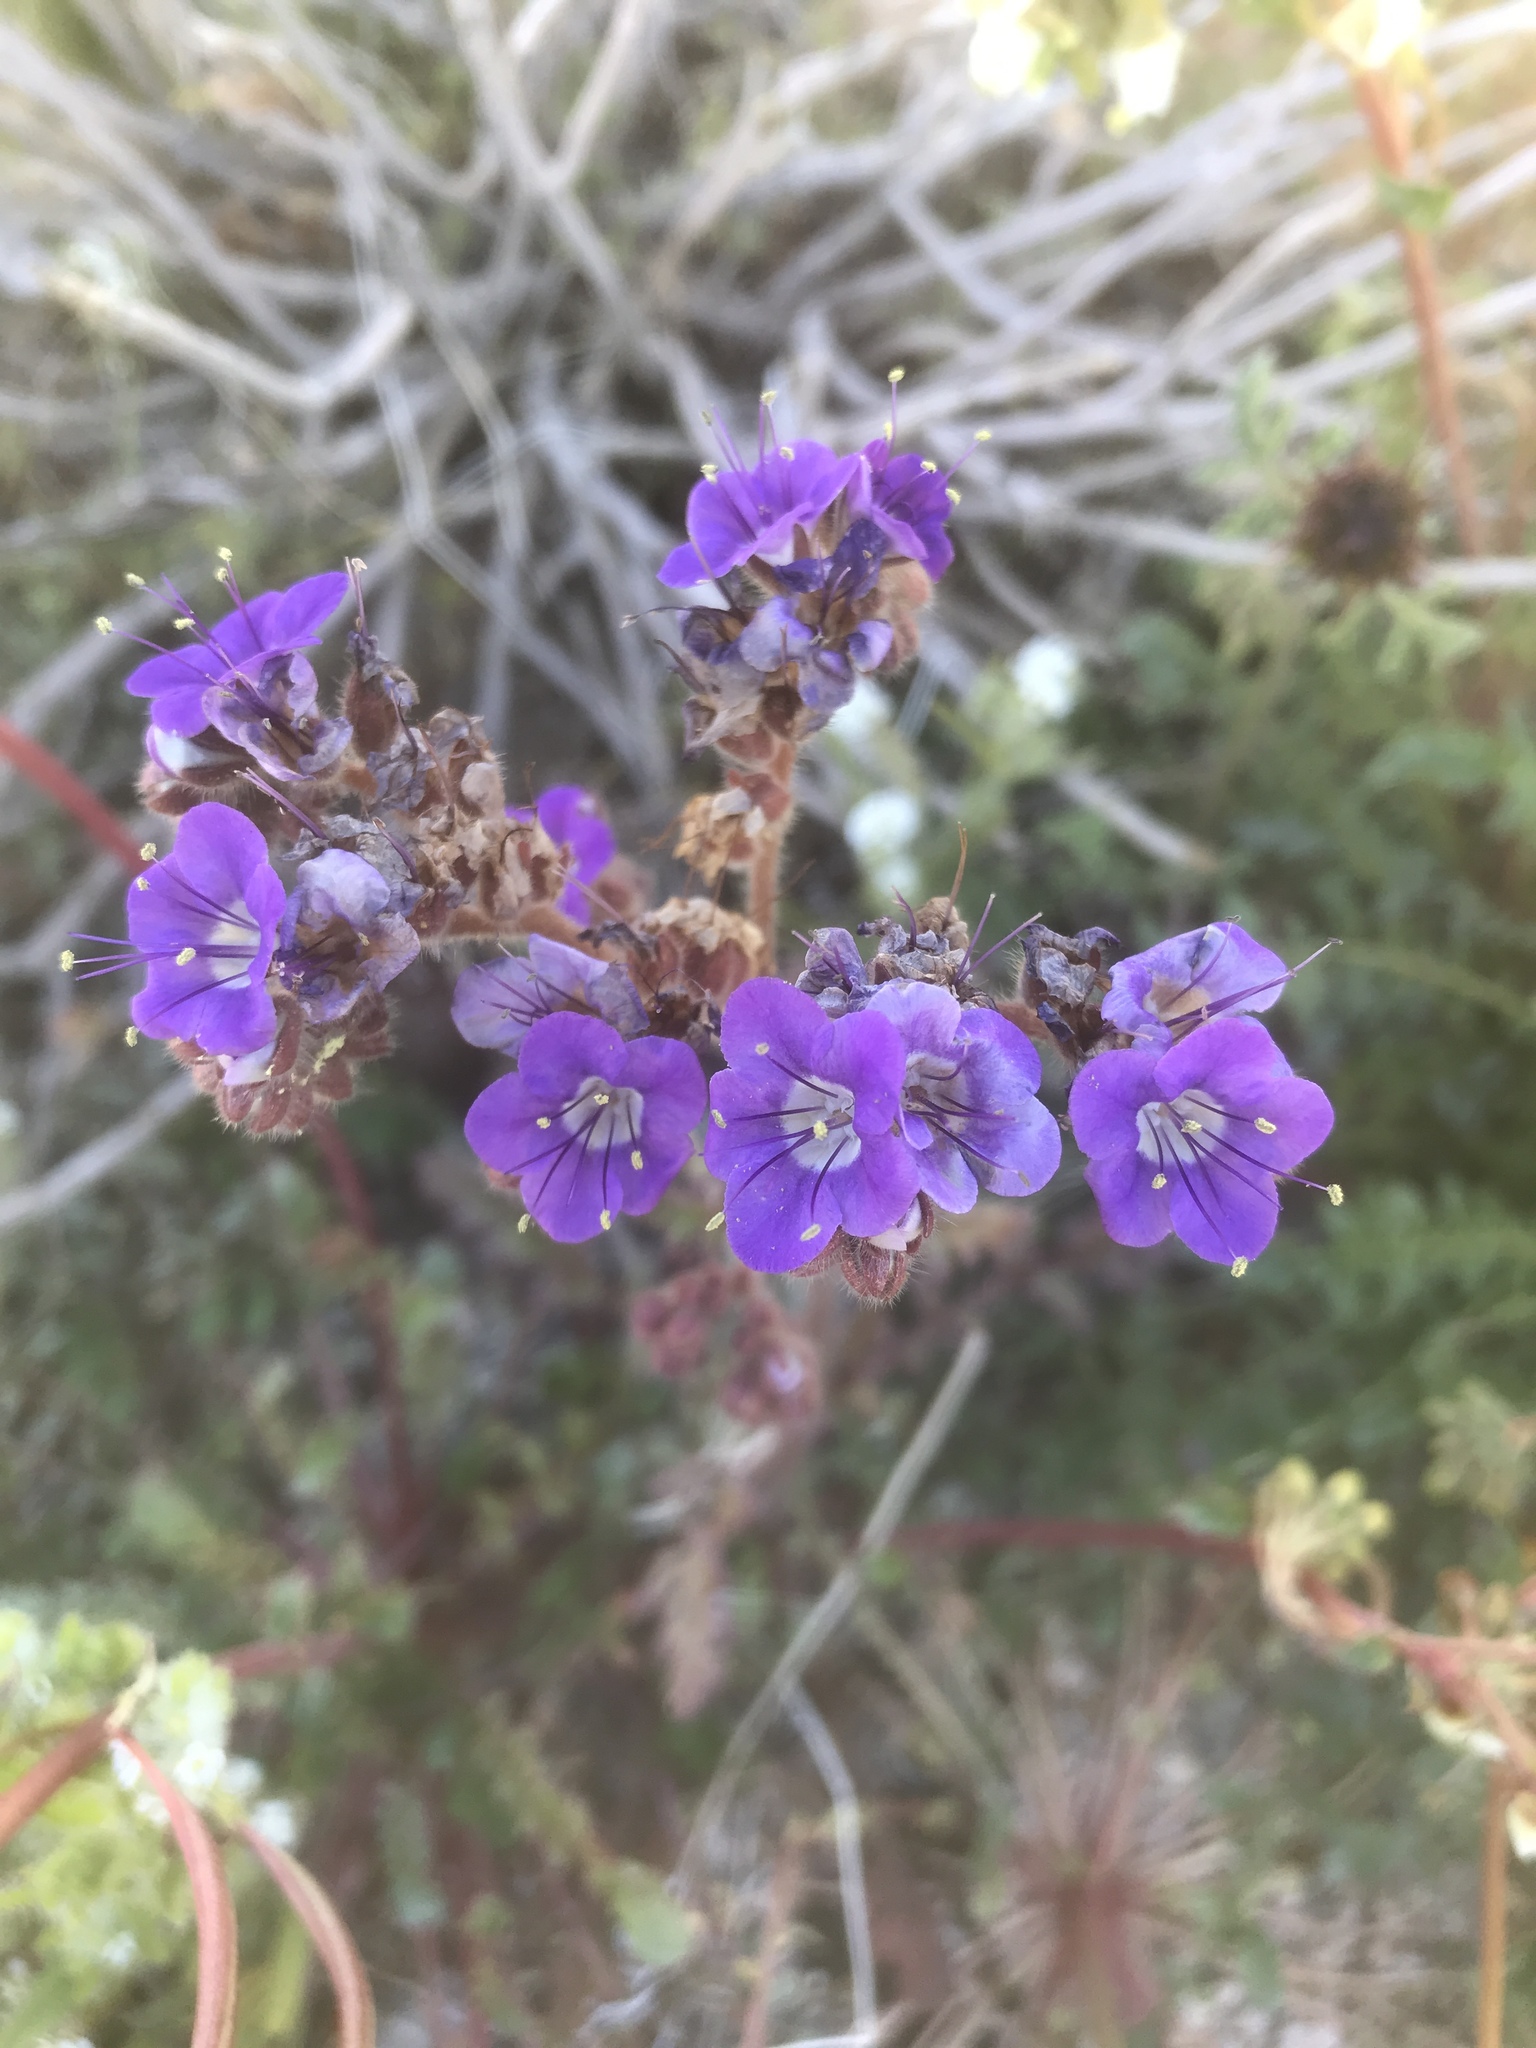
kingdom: Plantae
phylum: Tracheophyta
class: Magnoliopsida
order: Boraginales
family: Hydrophyllaceae
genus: Phacelia
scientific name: Phacelia crenulata
